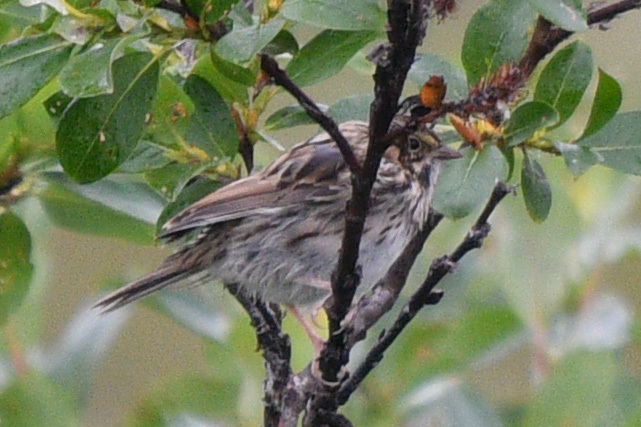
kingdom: Animalia
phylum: Chordata
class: Aves
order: Passeriformes
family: Passerellidae
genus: Passerculus
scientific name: Passerculus sandwichensis
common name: Savannah sparrow
